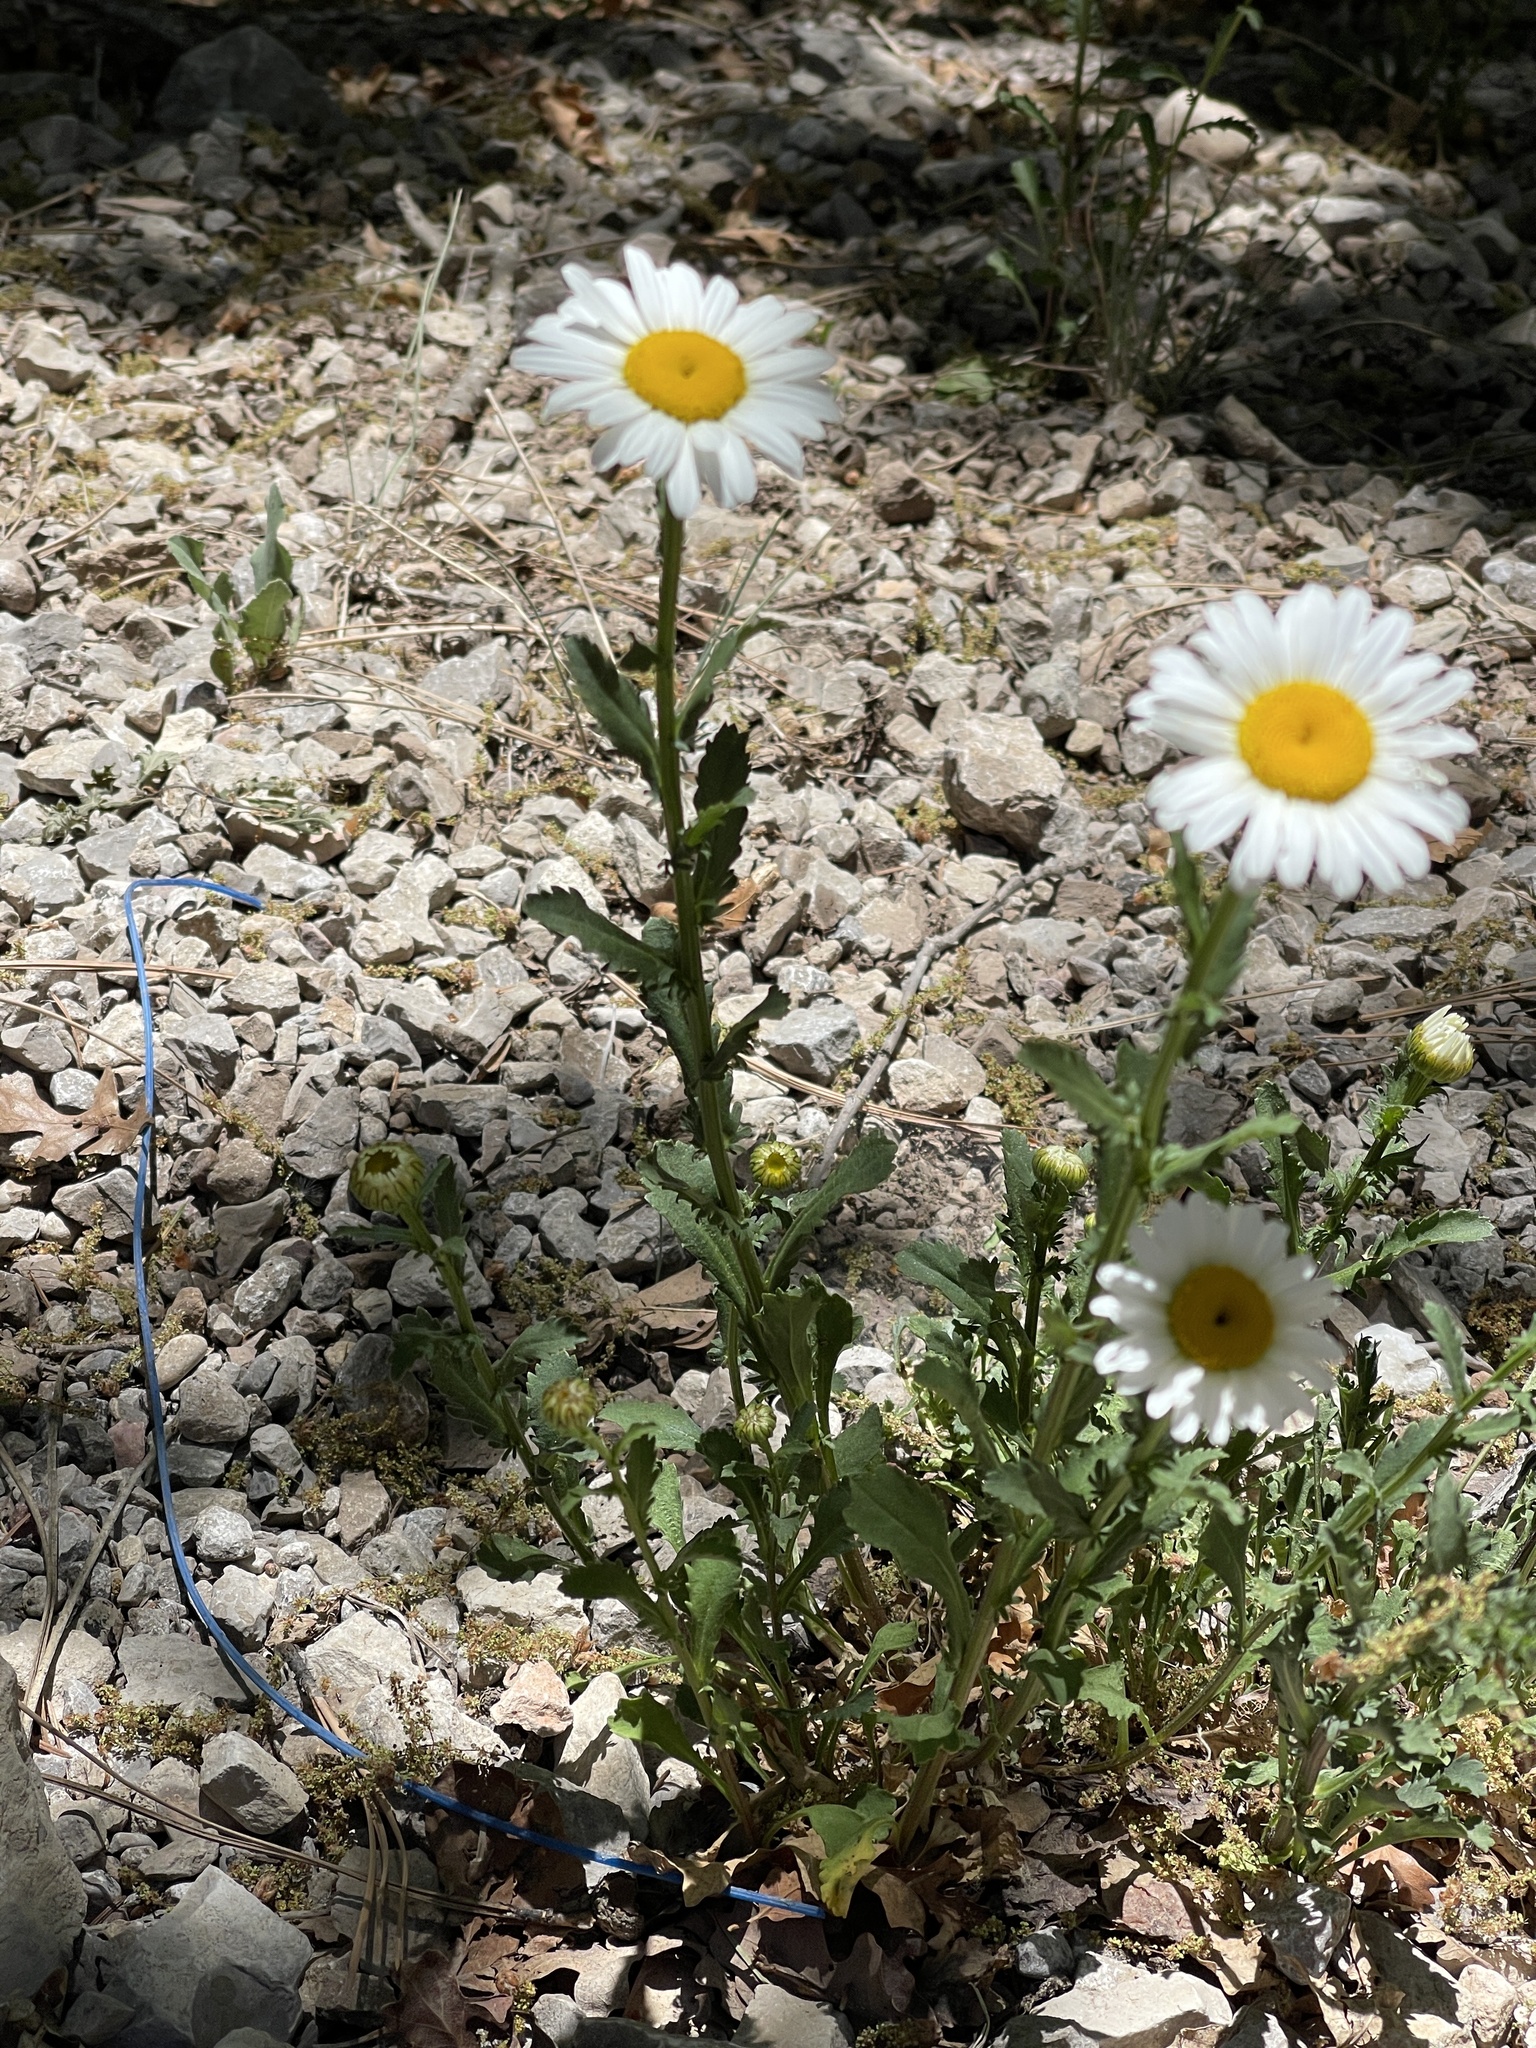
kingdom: Plantae
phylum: Tracheophyta
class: Magnoliopsida
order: Asterales
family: Asteraceae
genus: Leucanthemum
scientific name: Leucanthemum vulgare
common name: Oxeye daisy
